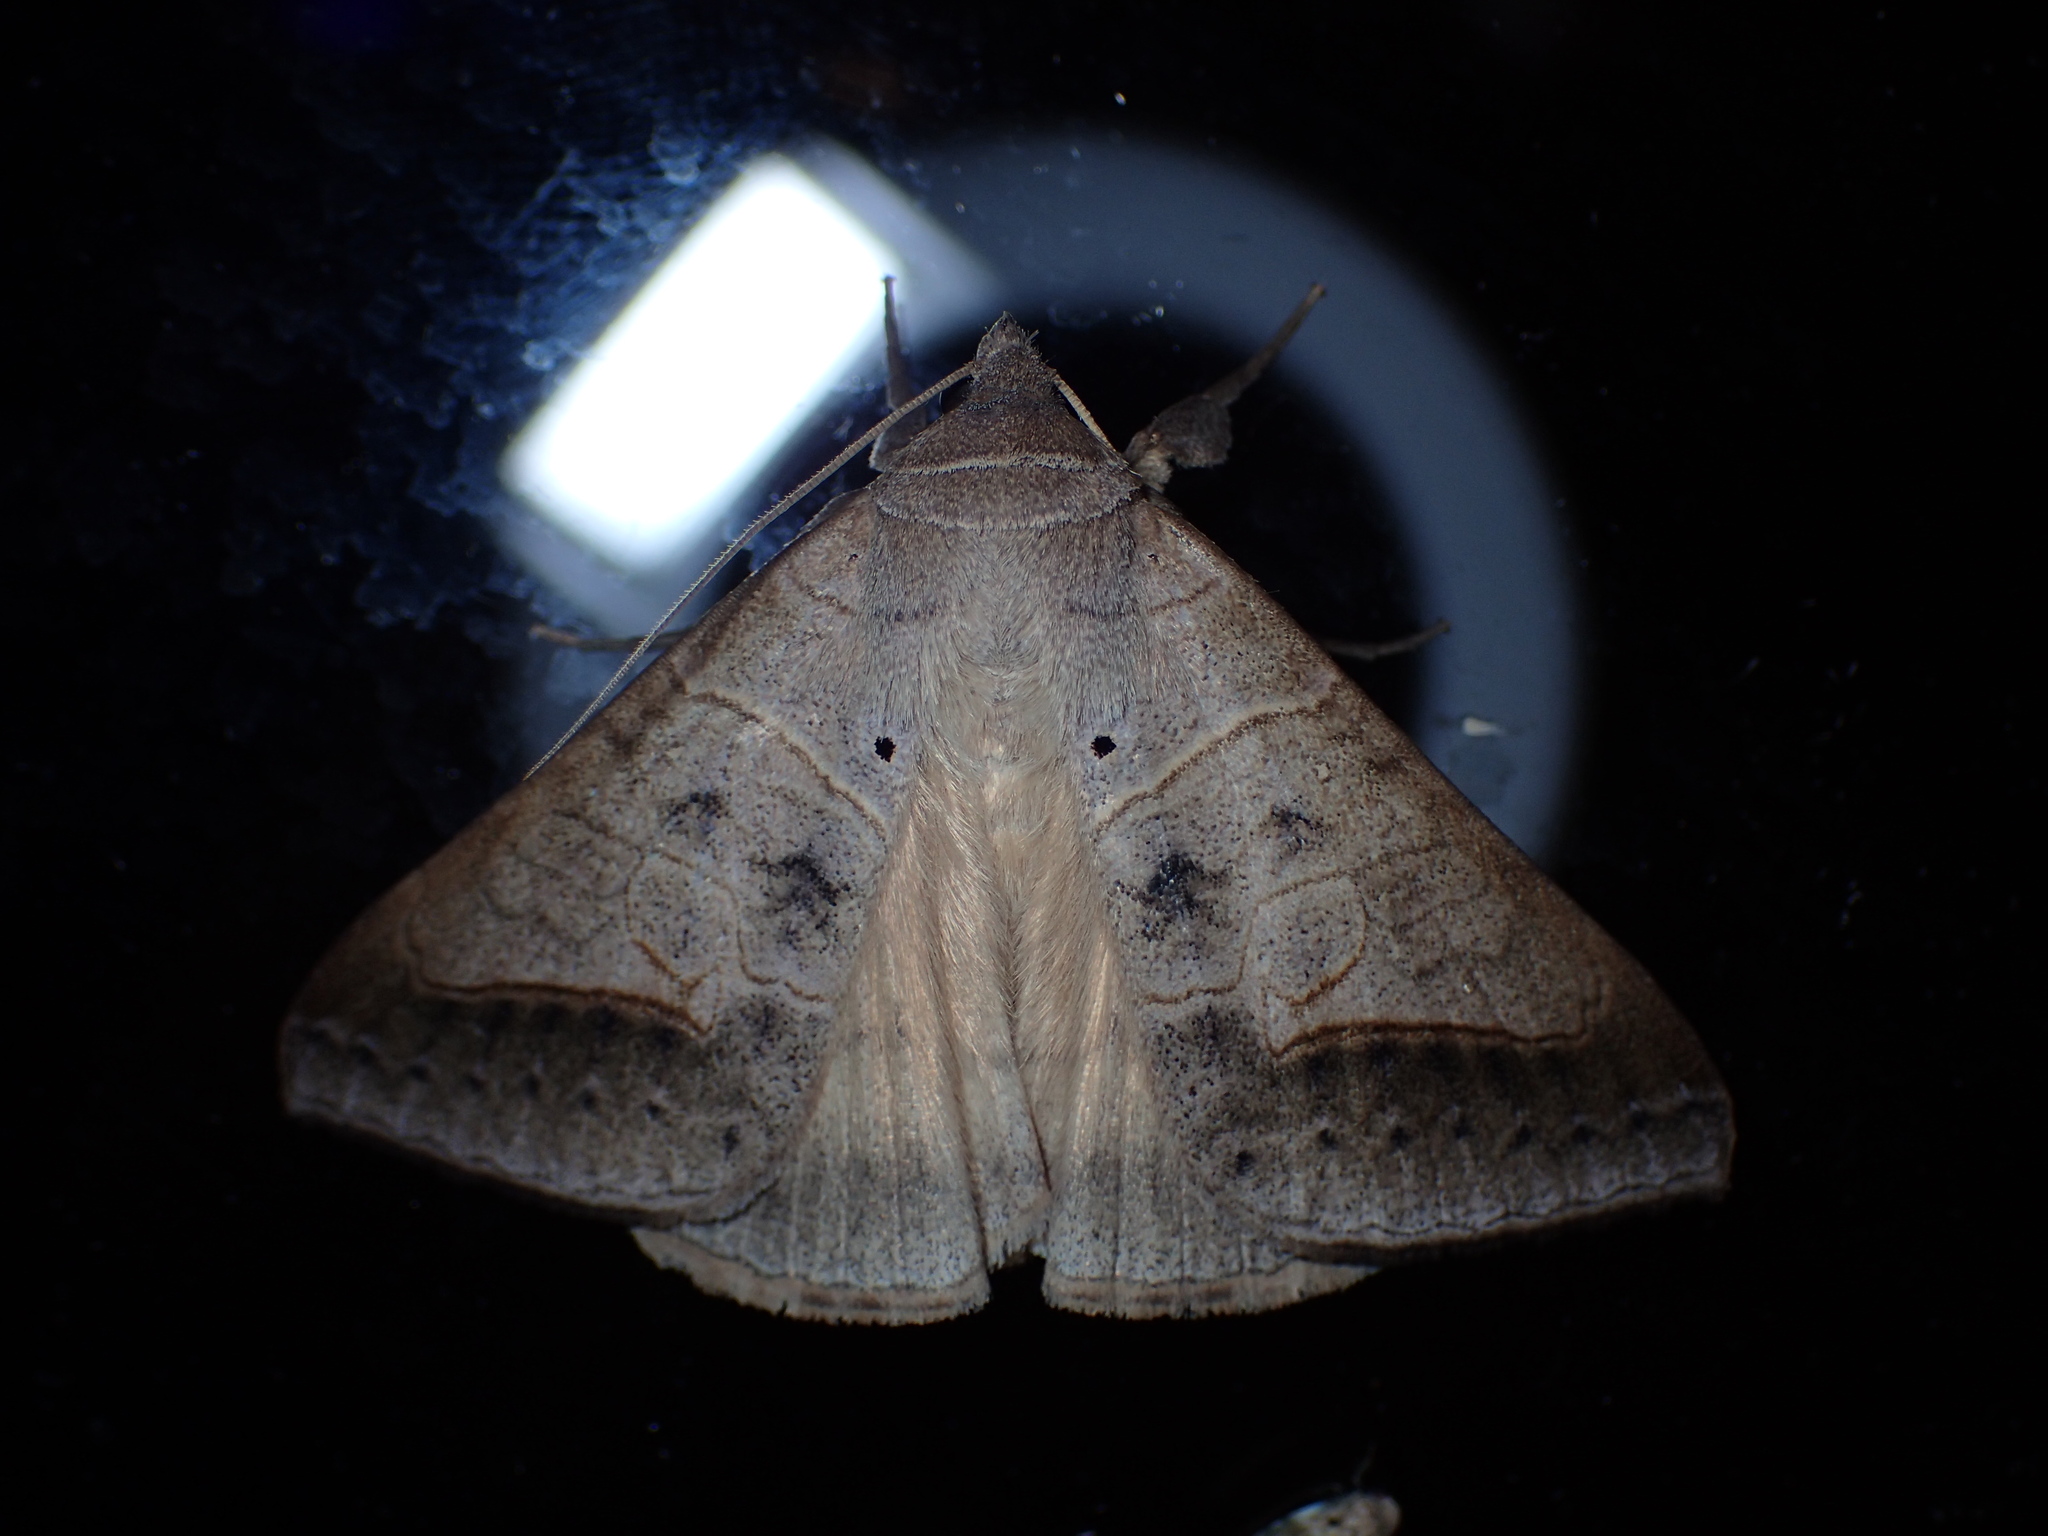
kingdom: Animalia
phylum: Arthropoda
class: Insecta
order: Lepidoptera
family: Erebidae
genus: Mocis
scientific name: Mocis marcida
